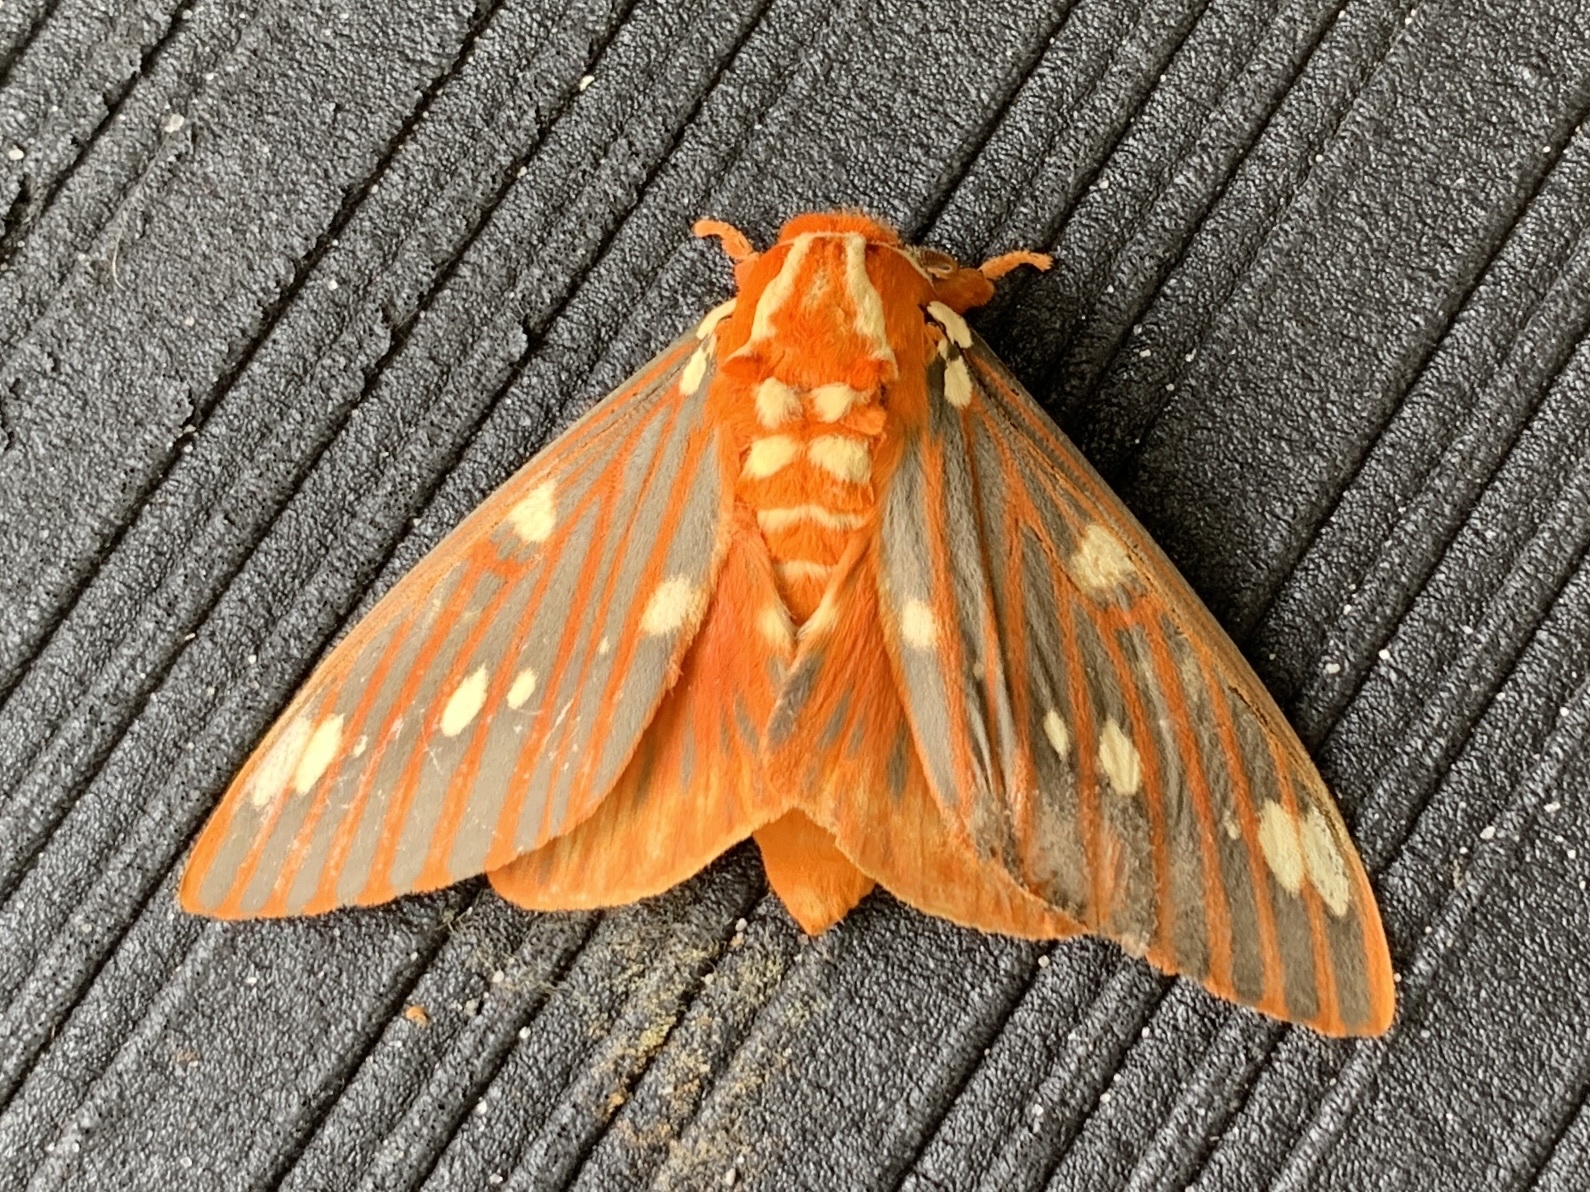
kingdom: Animalia
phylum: Arthropoda
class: Insecta
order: Lepidoptera
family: Saturniidae
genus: Citheronia
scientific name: Citheronia regalis
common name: Hickory horned devil
